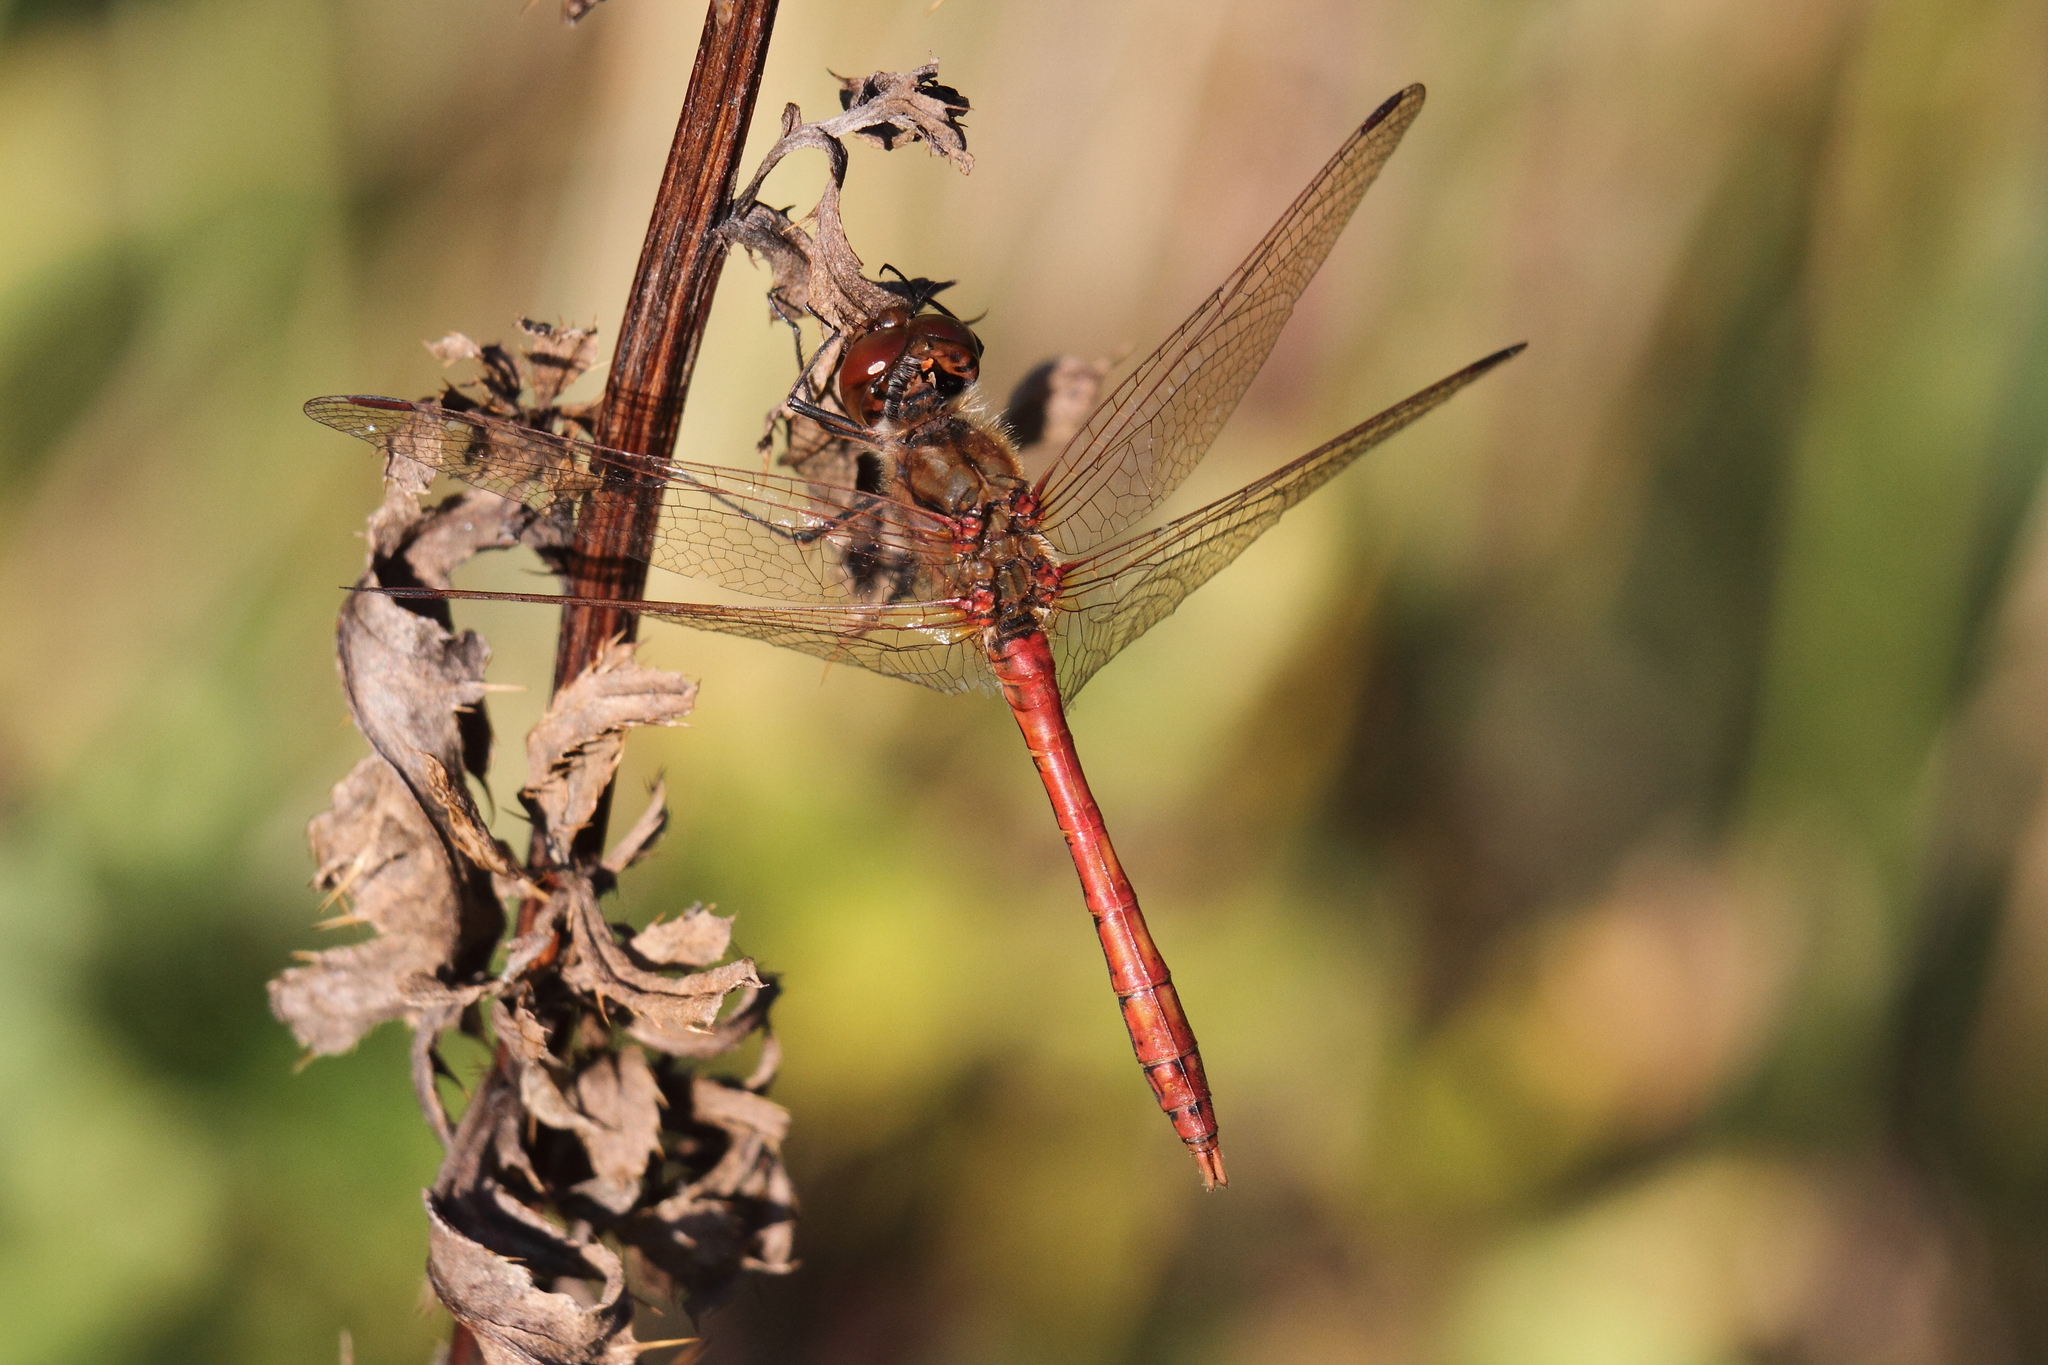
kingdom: Animalia
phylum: Arthropoda
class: Insecta
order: Odonata
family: Libellulidae
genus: Sympetrum
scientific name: Sympetrum vulgatum
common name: Vagrant darter
